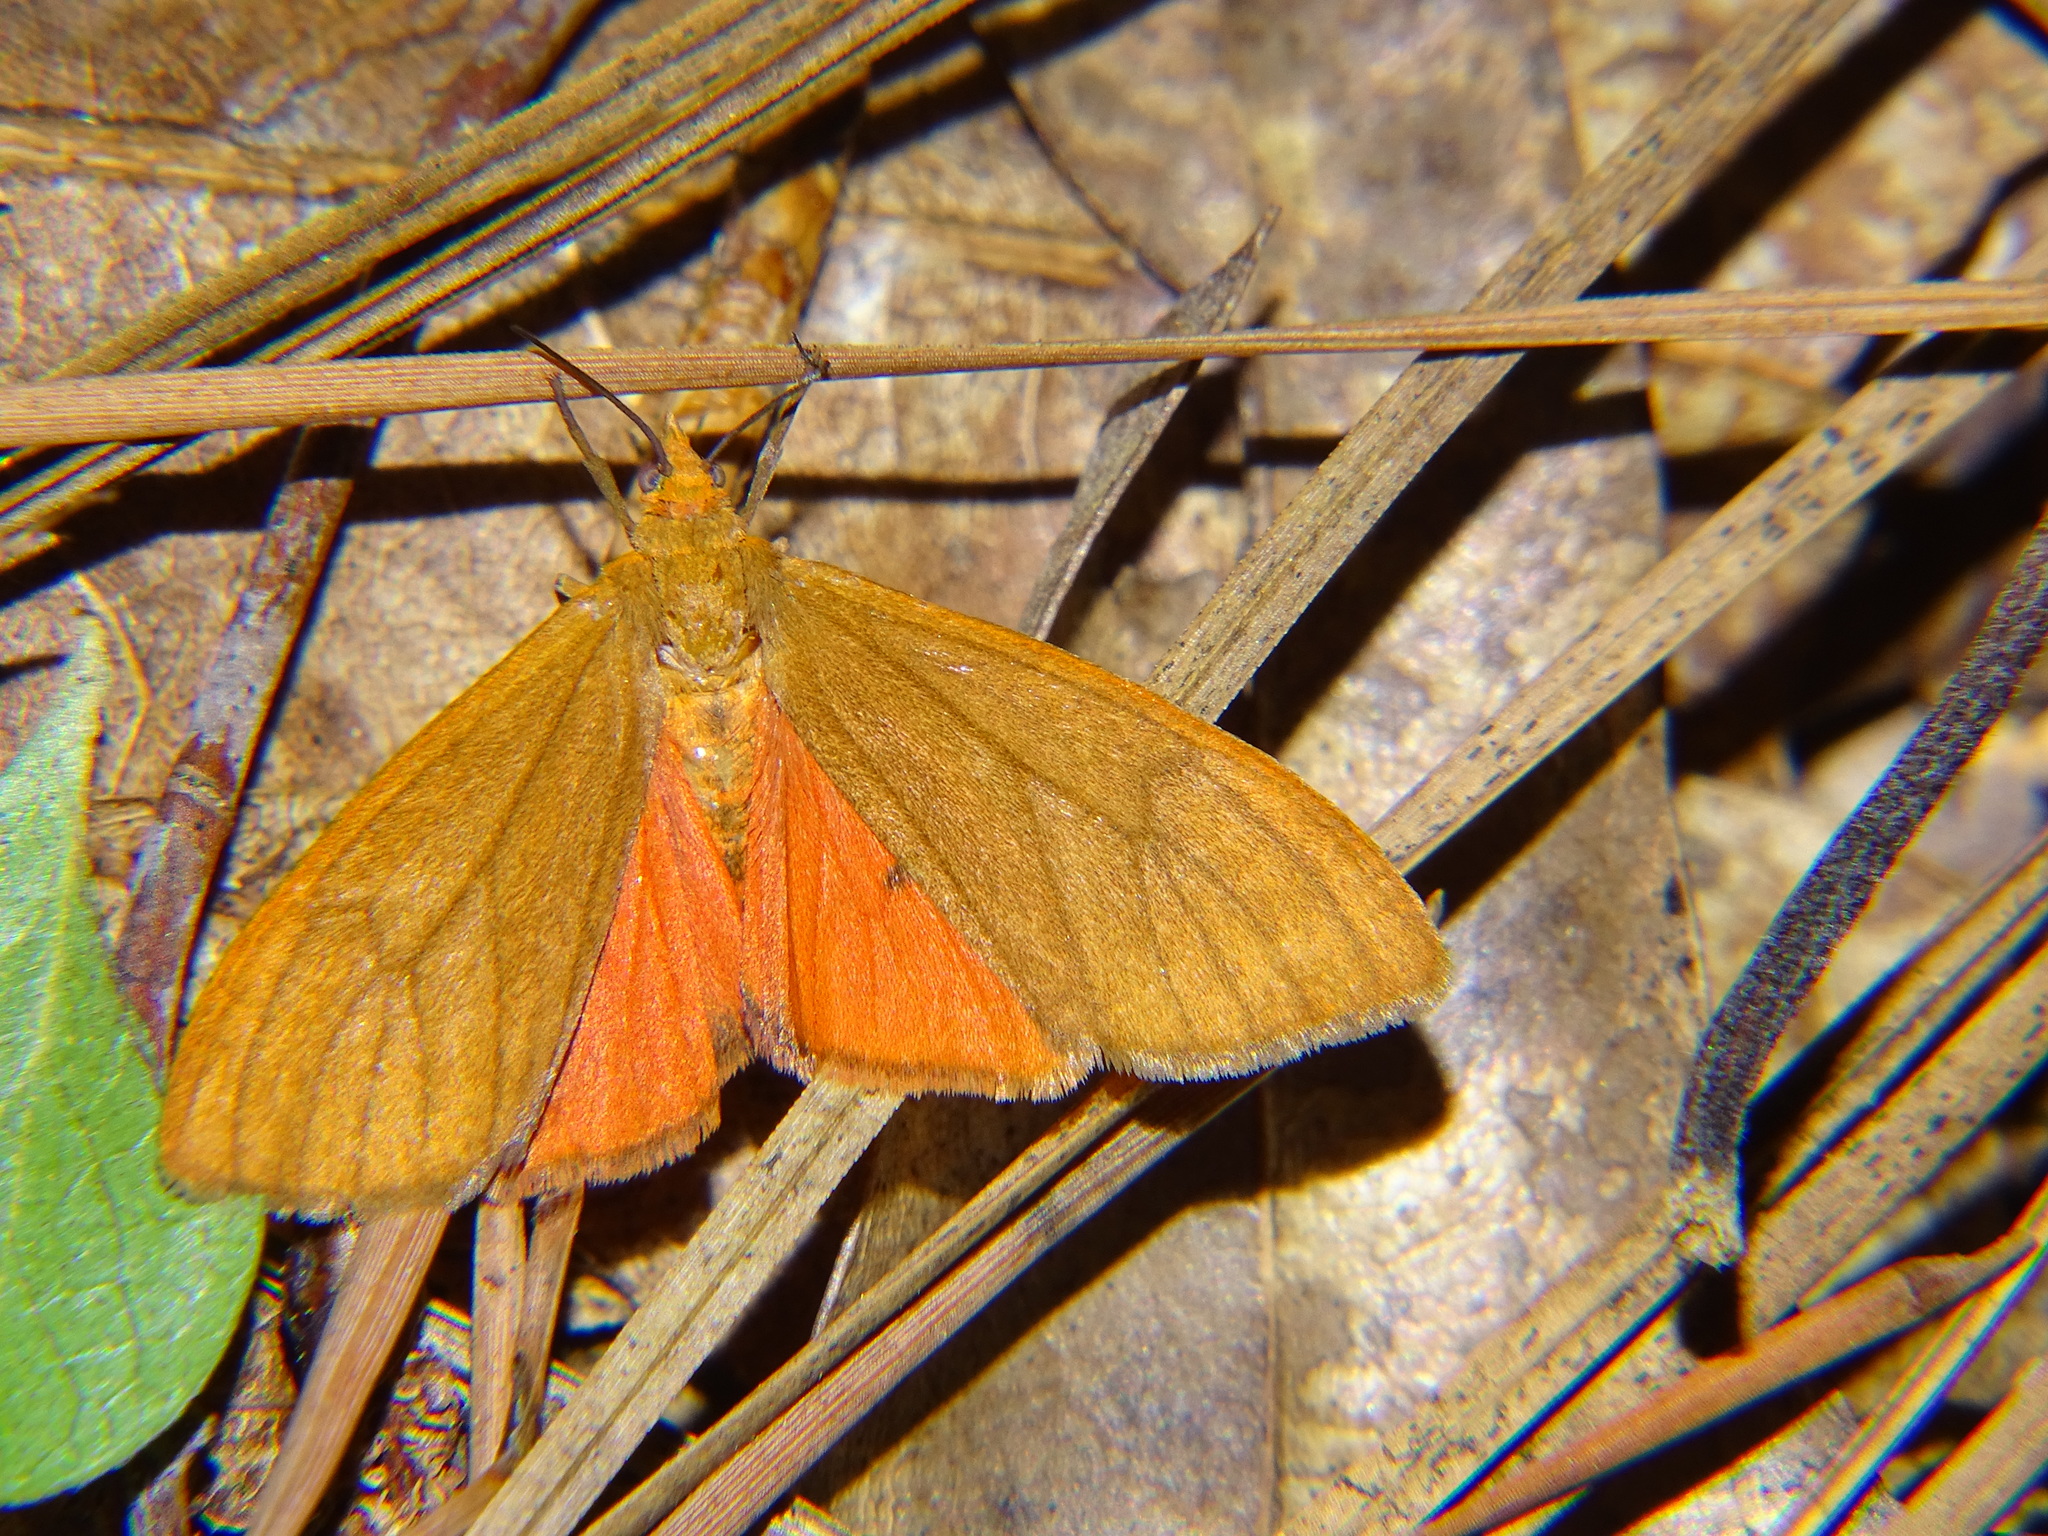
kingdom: Animalia
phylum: Arthropoda
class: Insecta
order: Lepidoptera
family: Erebidae
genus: Virbia
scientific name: Virbia opella
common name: Tawny virbia moth
